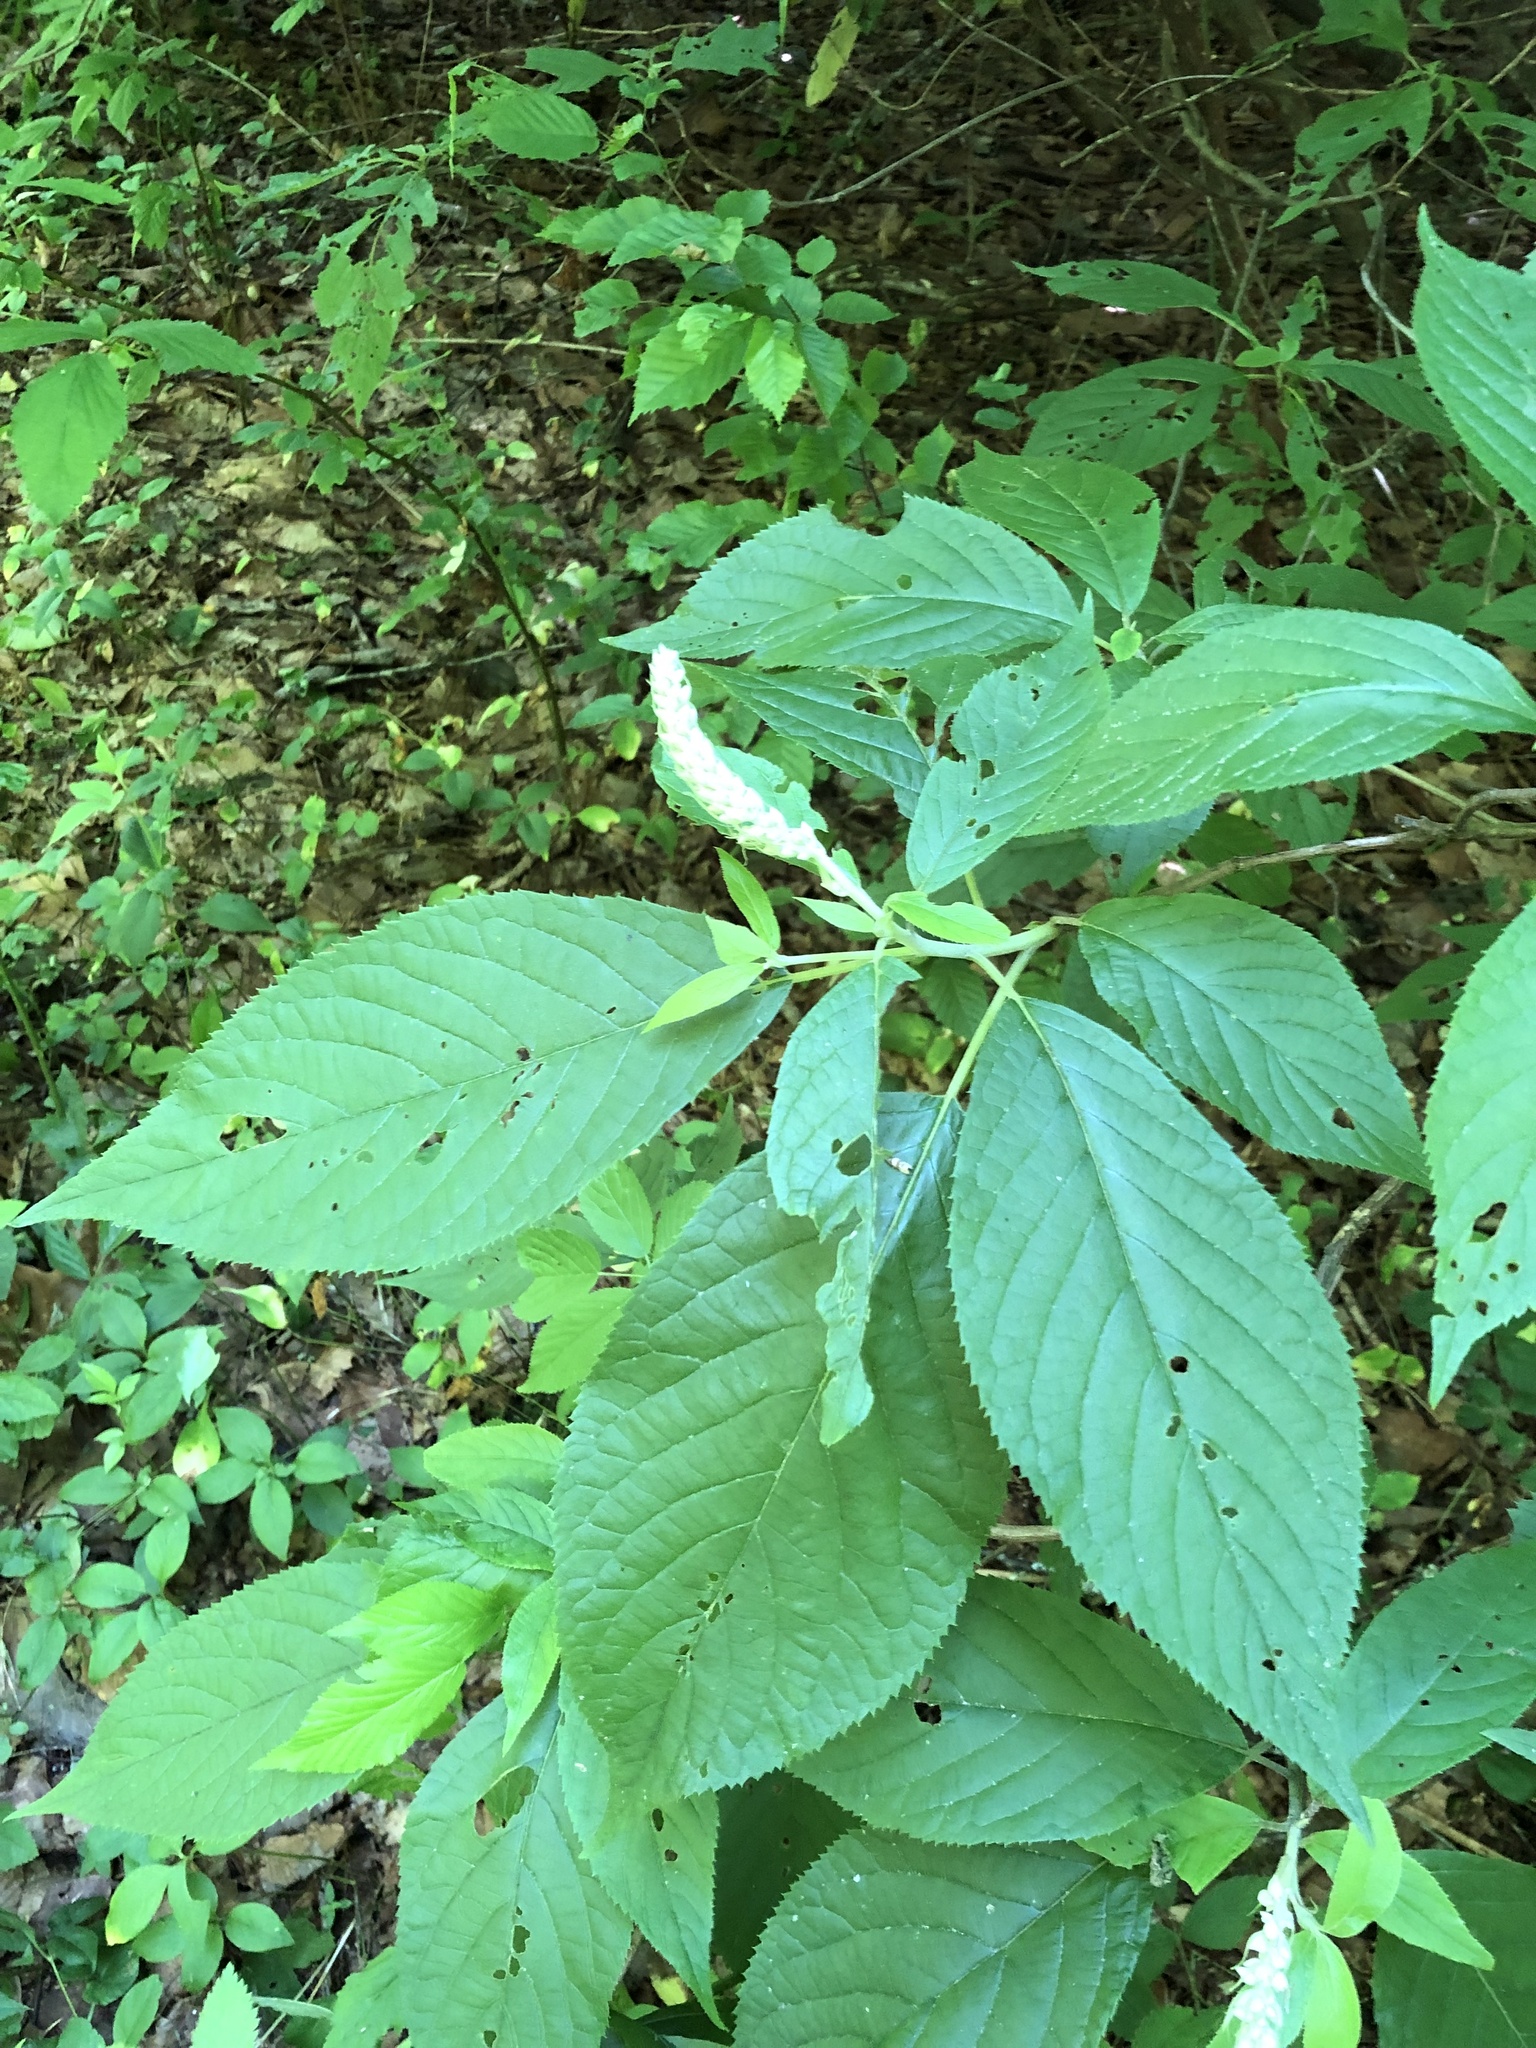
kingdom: Plantae
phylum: Tracheophyta
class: Magnoliopsida
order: Ericales
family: Clethraceae
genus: Clethra
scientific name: Clethra acuminata
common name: Mountain sweet pepperbush
